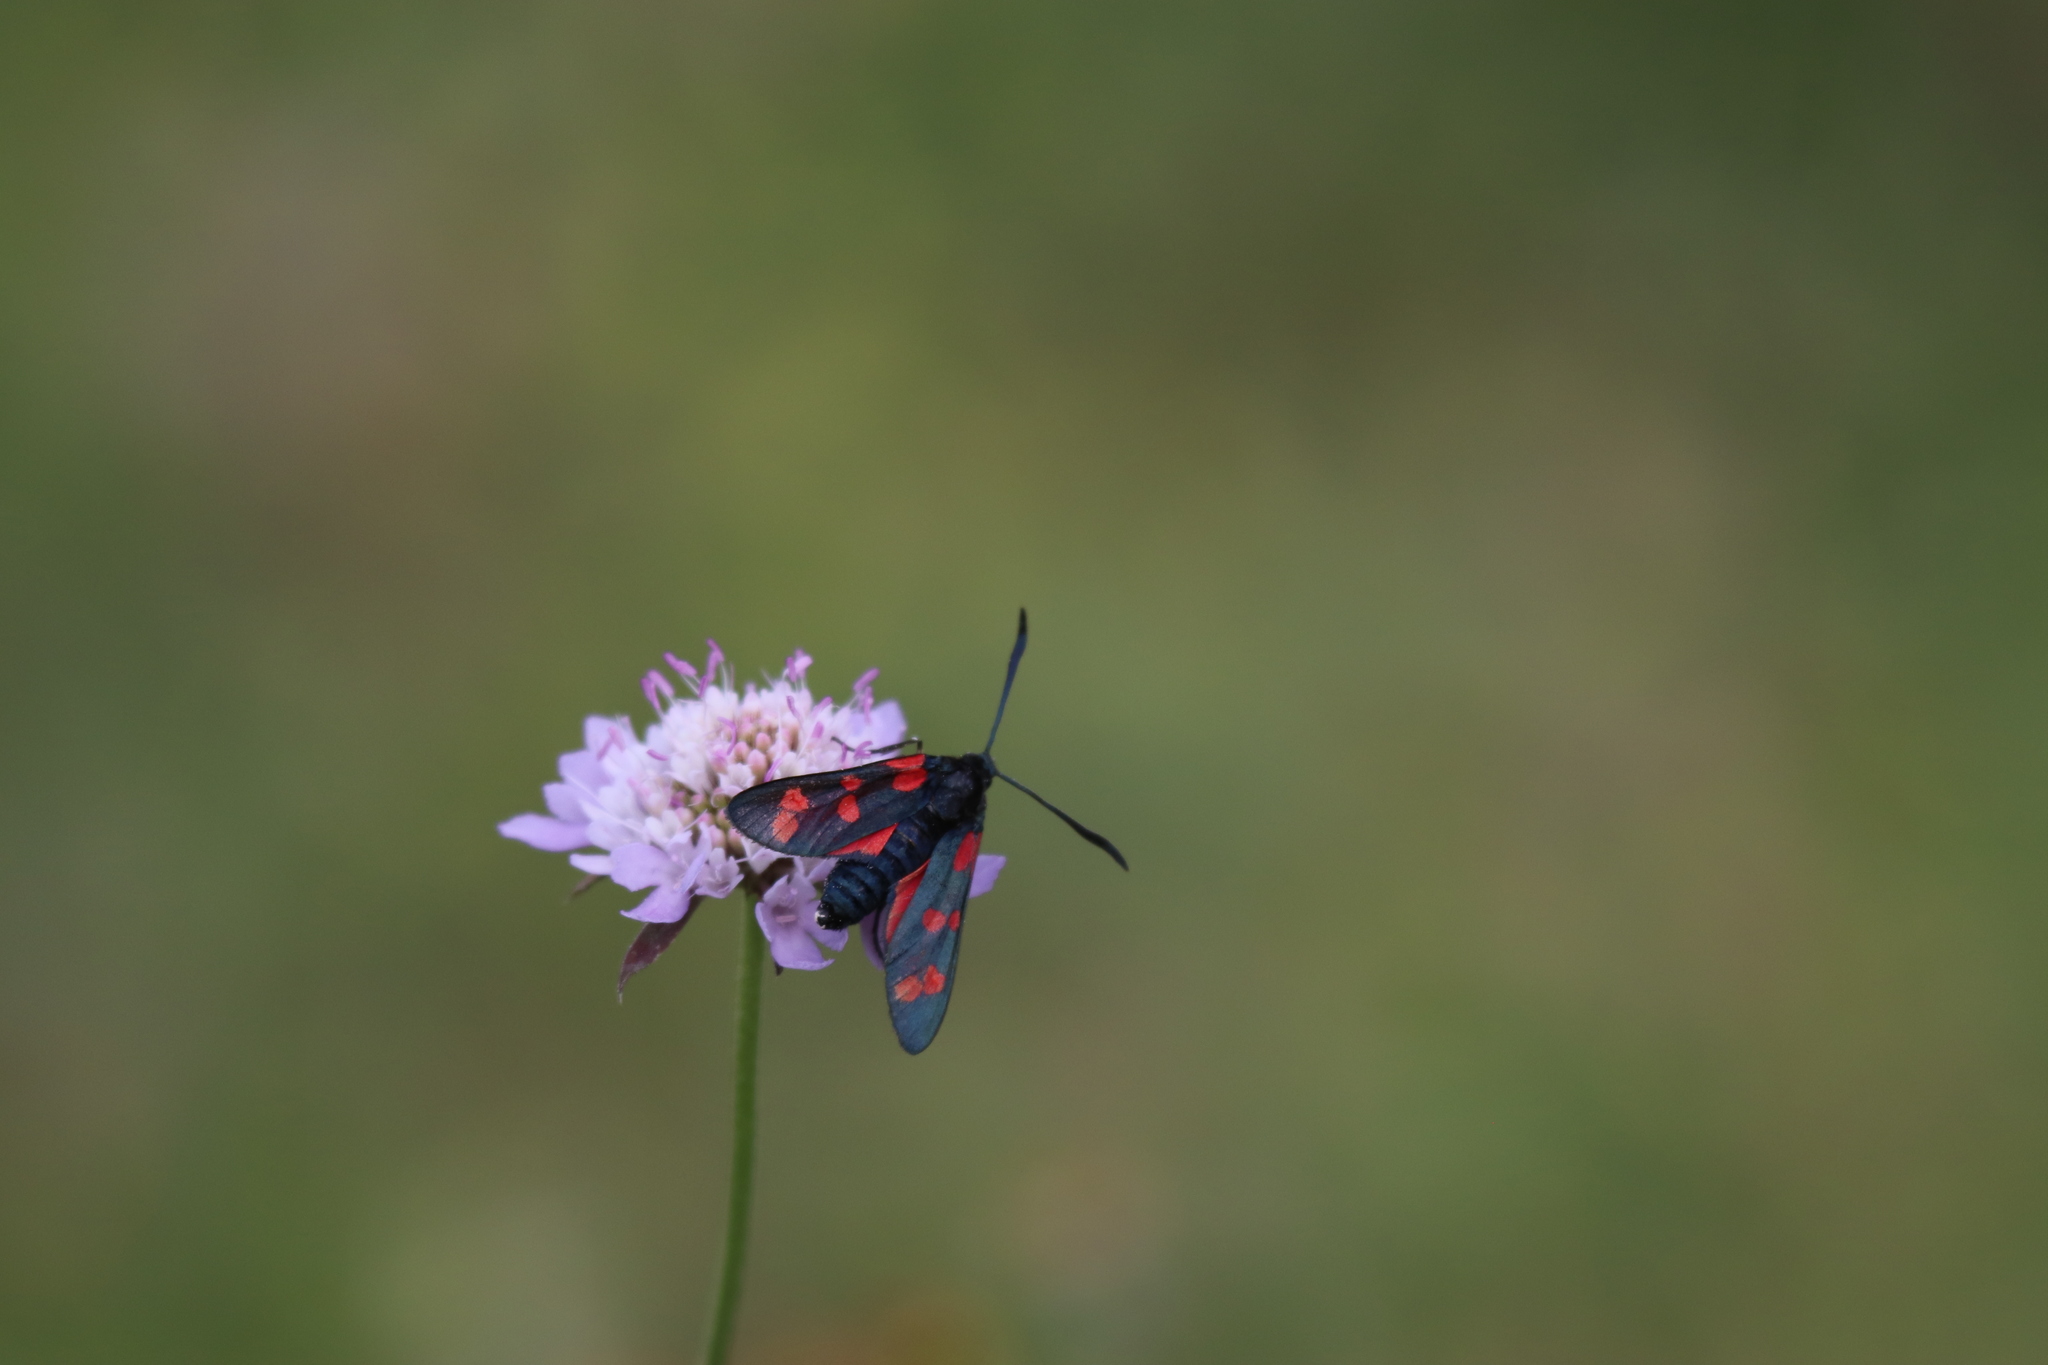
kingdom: Animalia
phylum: Arthropoda
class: Insecta
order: Lepidoptera
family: Zygaenidae
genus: Zygaena
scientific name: Zygaena filipendulae
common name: Six-spot burnet
